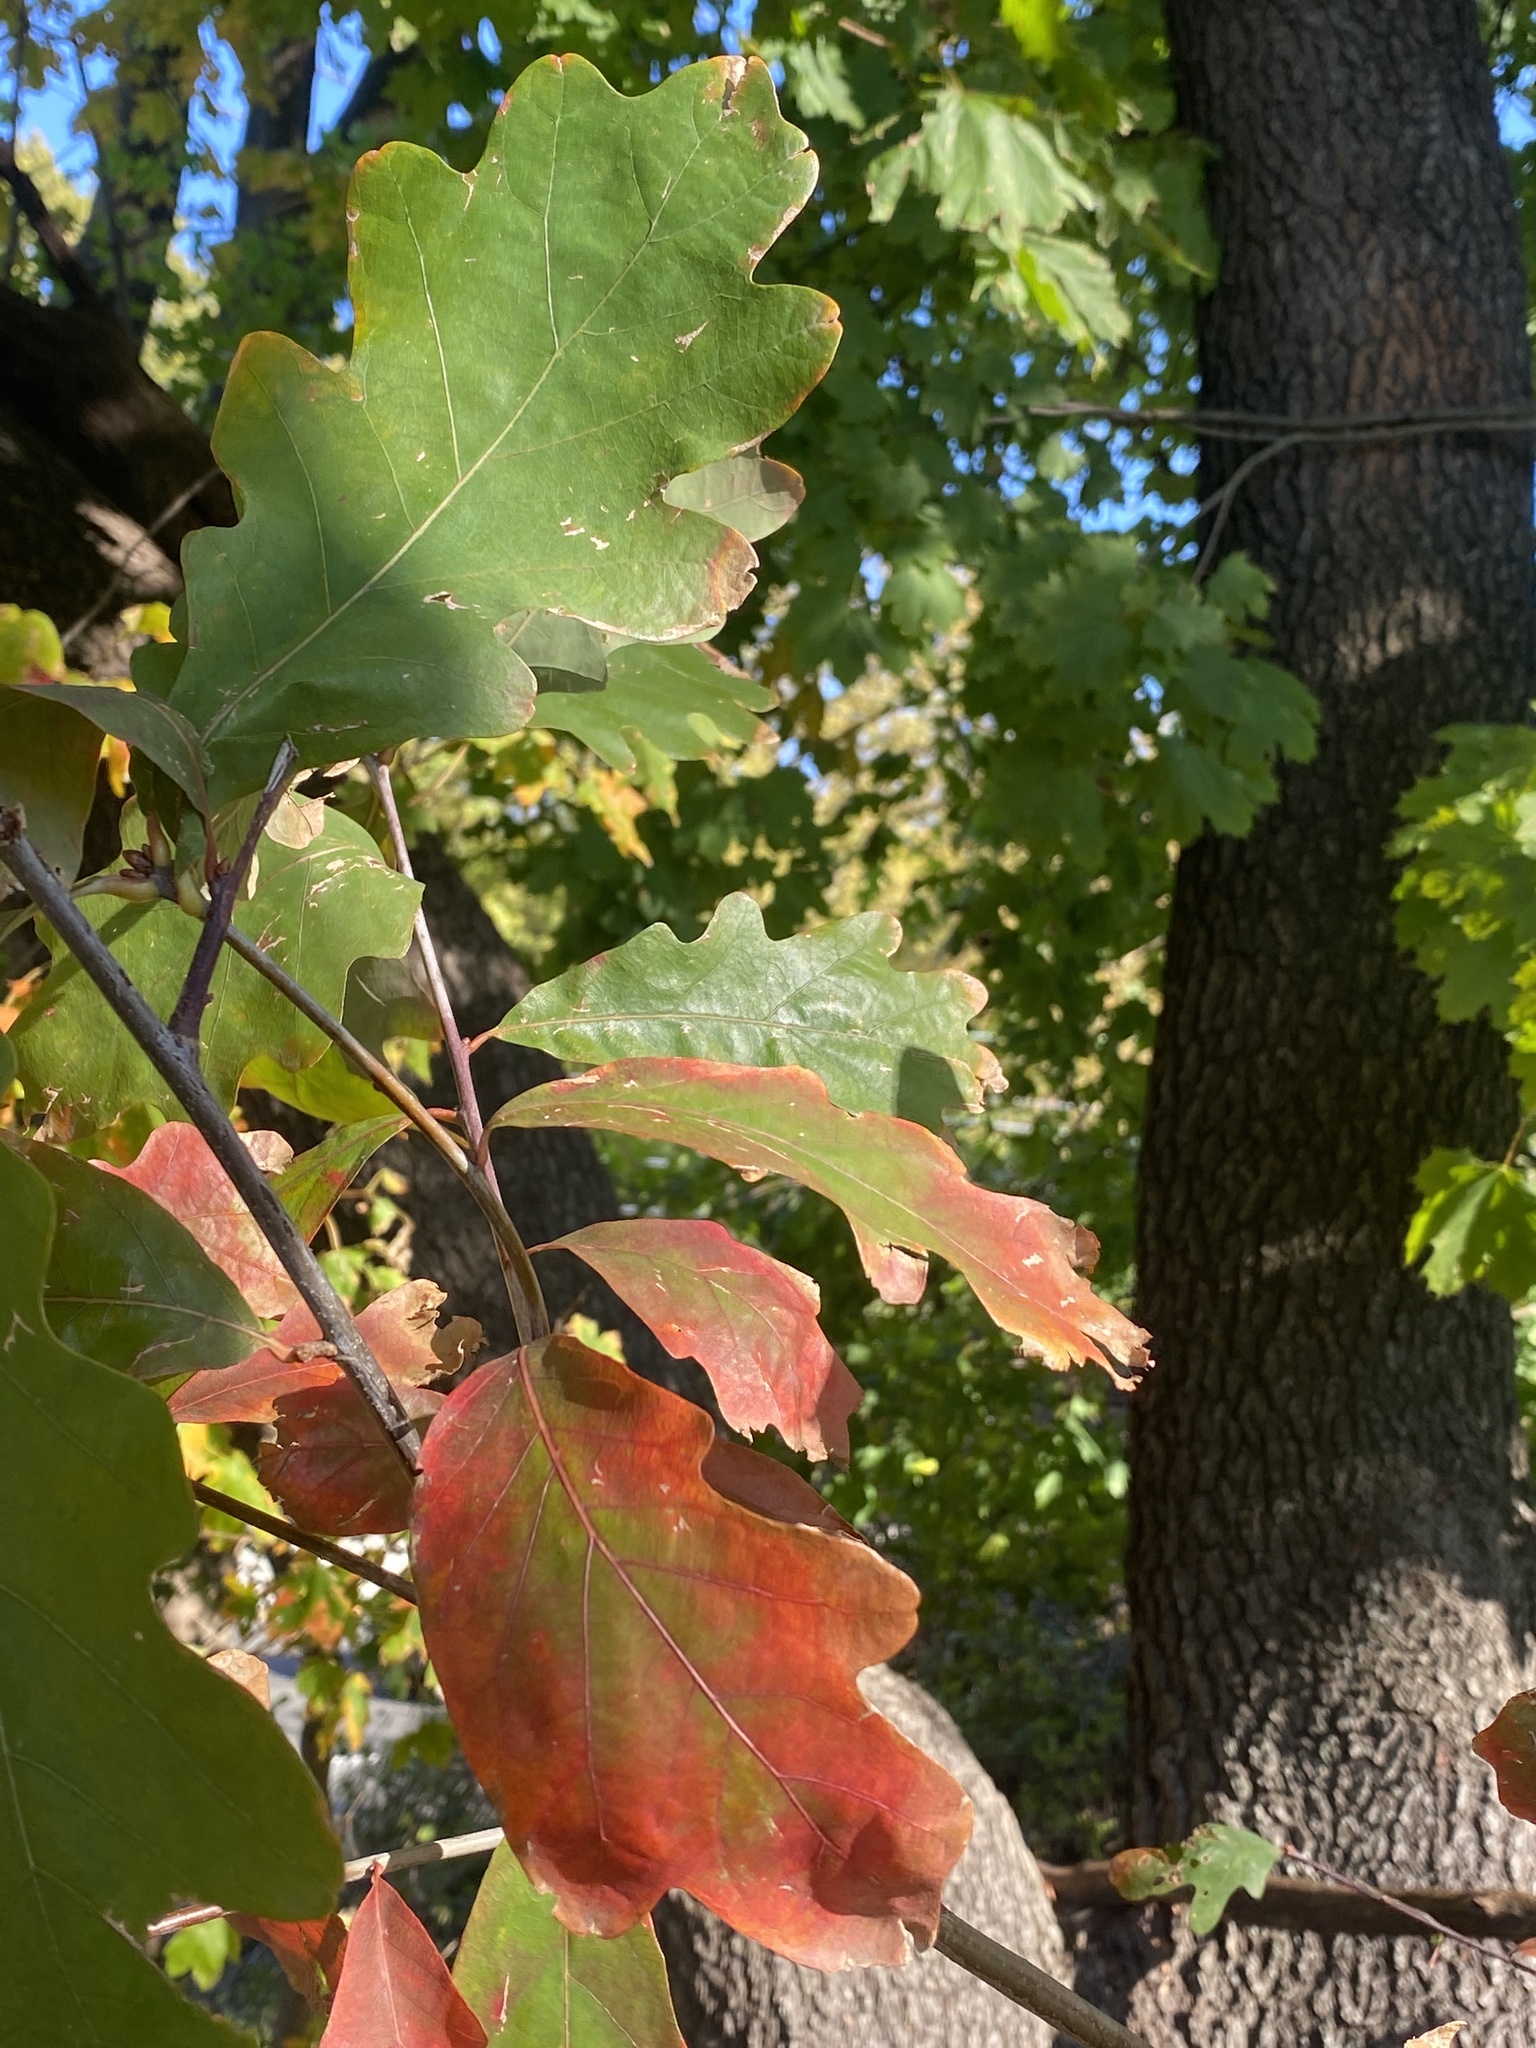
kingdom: Plantae
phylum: Tracheophyta
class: Magnoliopsida
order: Fagales
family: Fagaceae
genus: Quercus
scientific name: Quercus alba
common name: White oak
